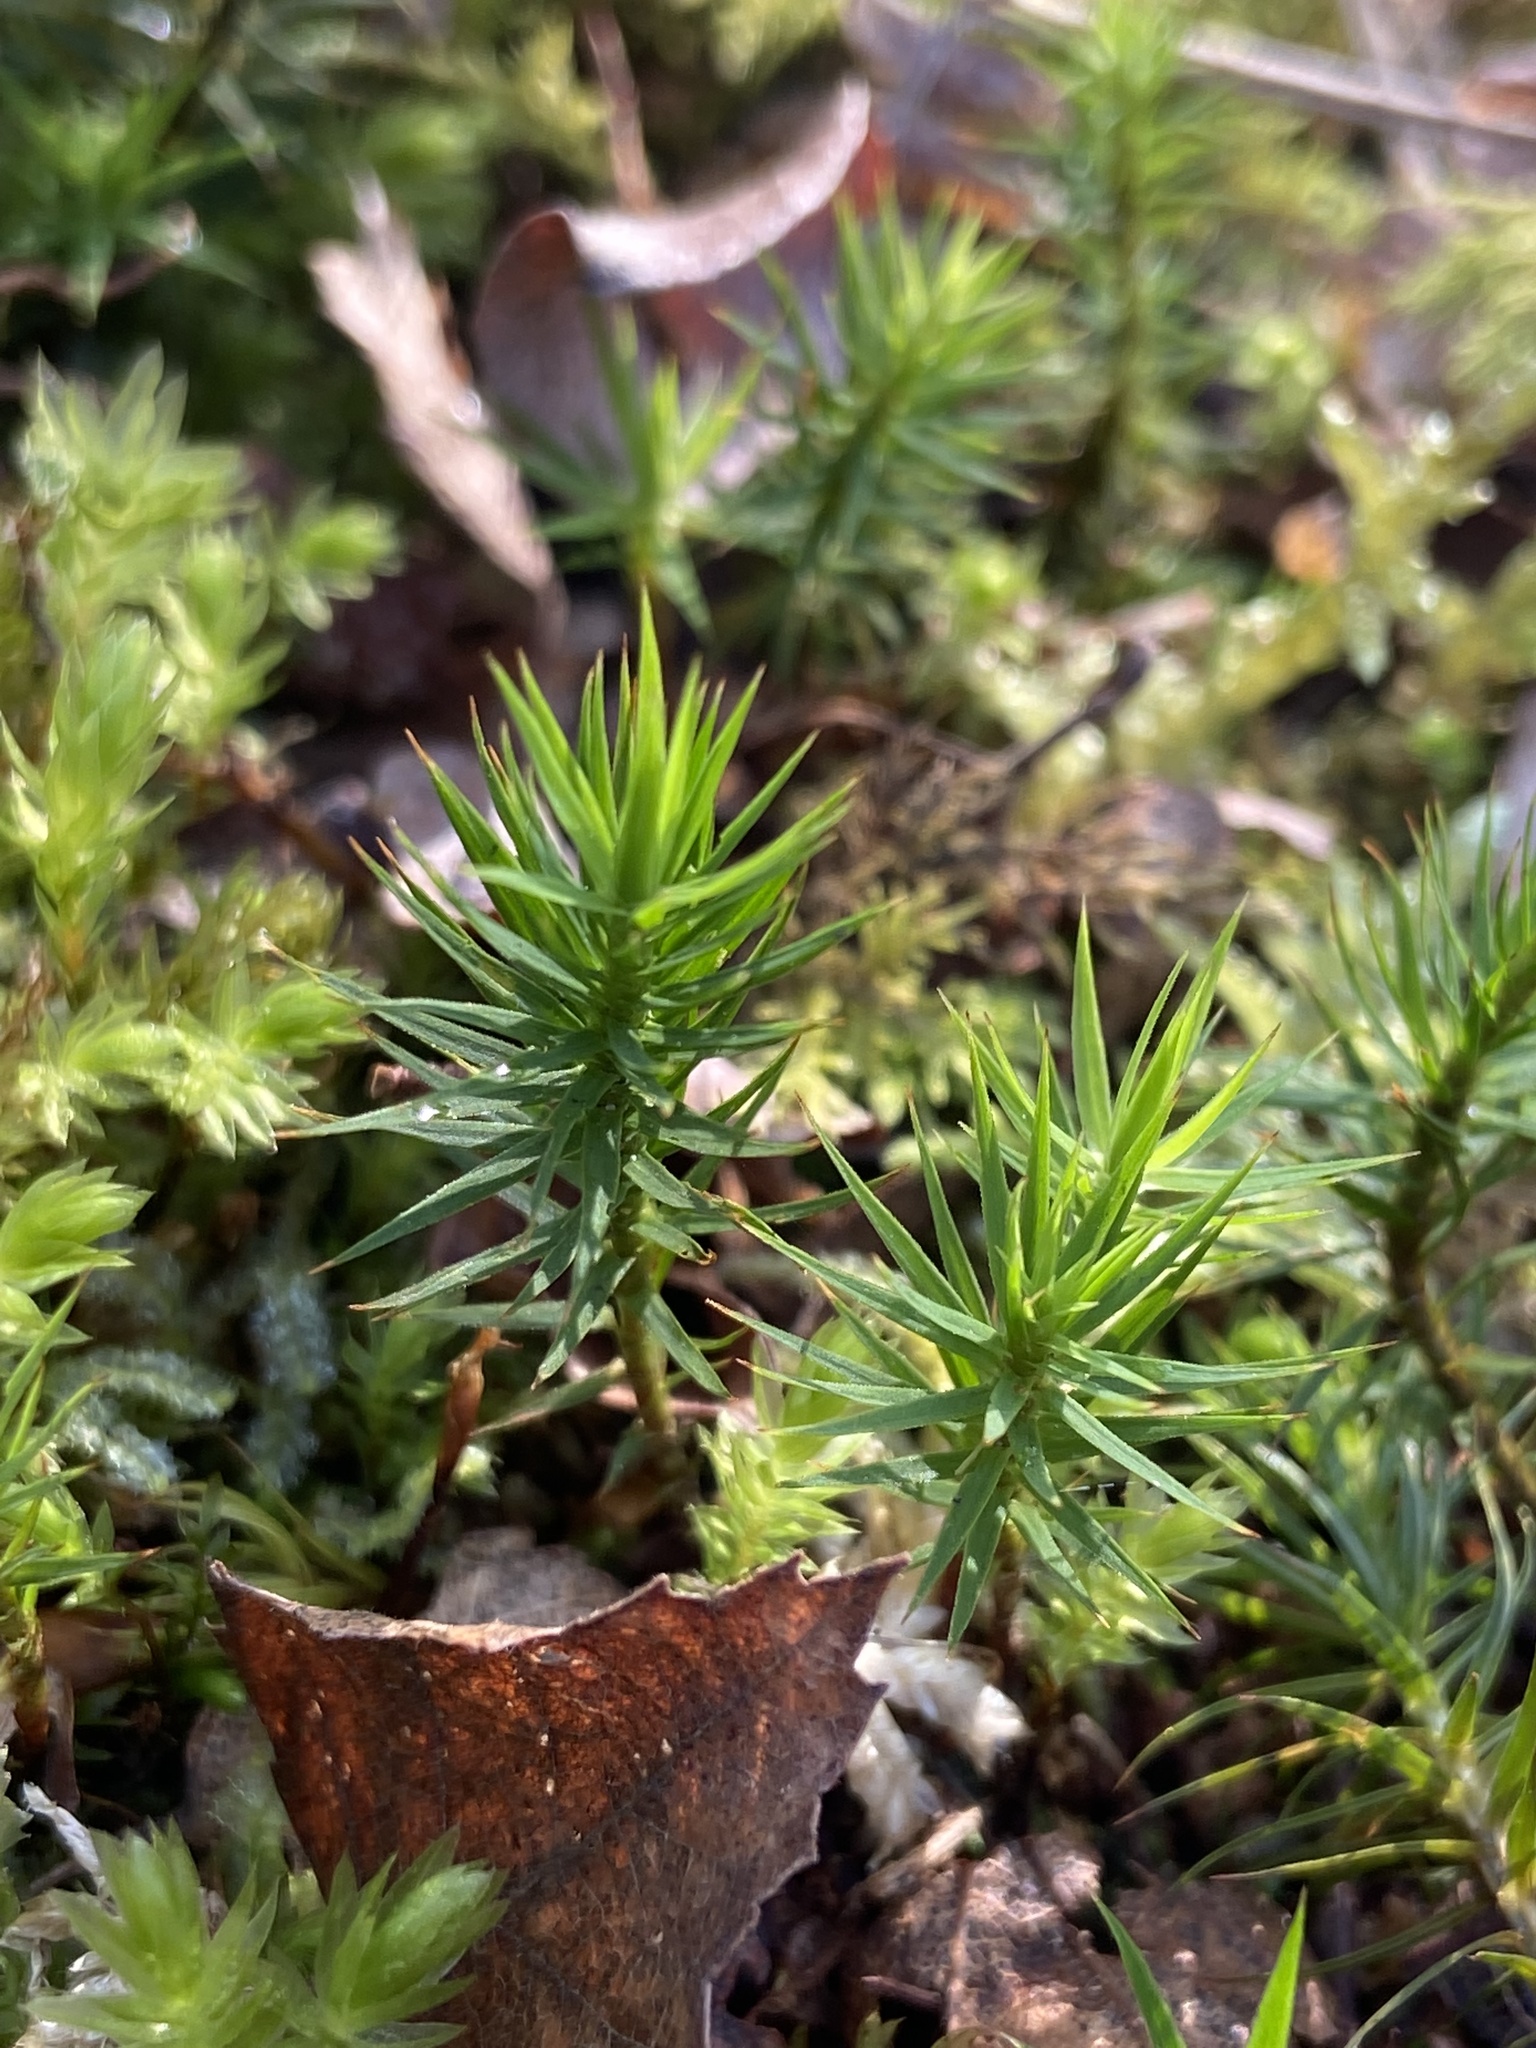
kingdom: Plantae
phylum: Bryophyta
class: Polytrichopsida
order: Polytrichales
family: Polytrichaceae
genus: Polytrichum
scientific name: Polytrichum formosum
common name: Bank haircap moss
